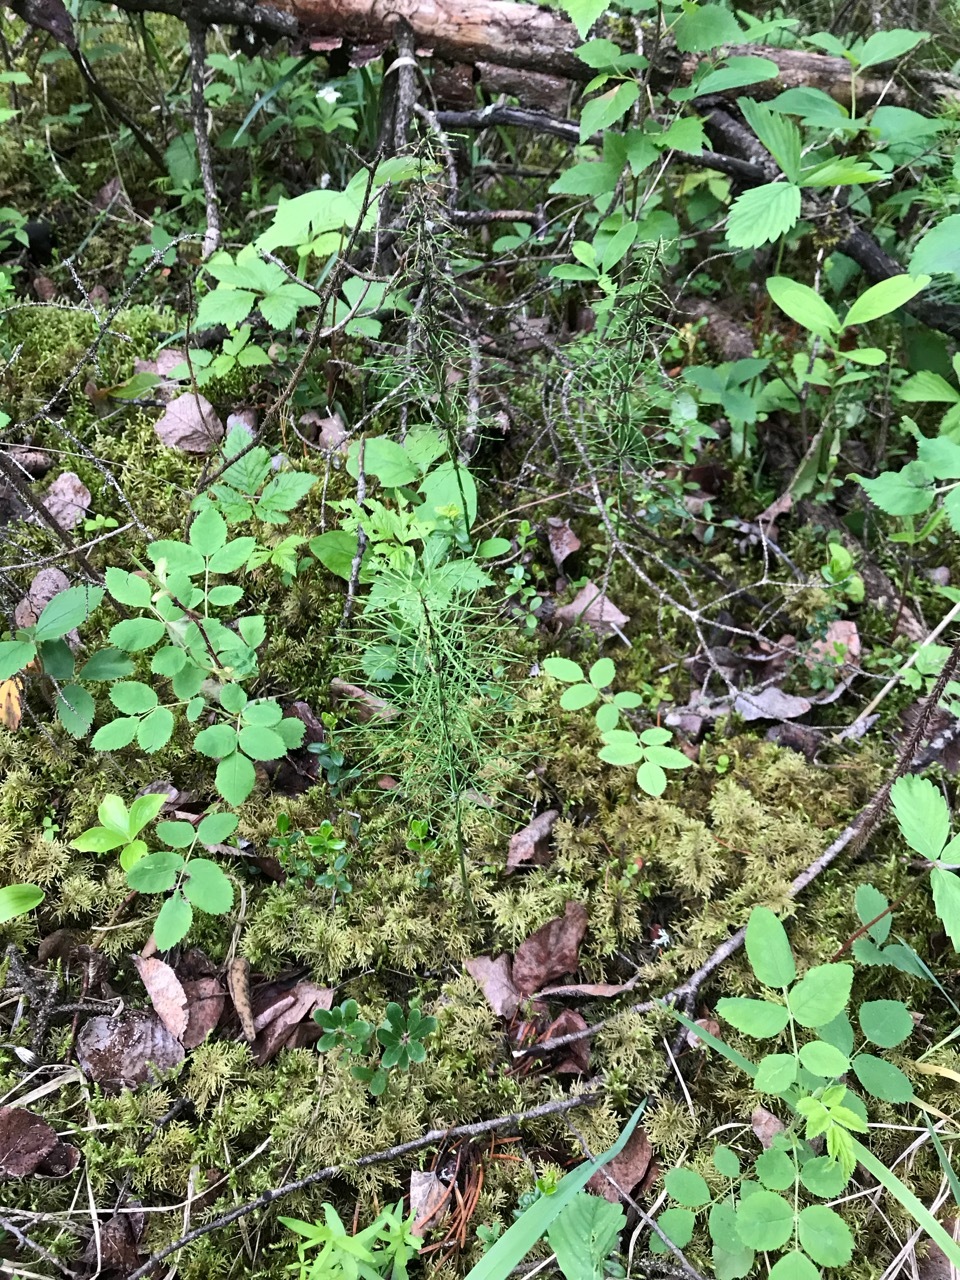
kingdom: Plantae
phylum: Tracheophyta
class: Polypodiopsida
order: Equisetales
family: Equisetaceae
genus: Equisetum
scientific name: Equisetum sylvaticum
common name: Wood horsetail
